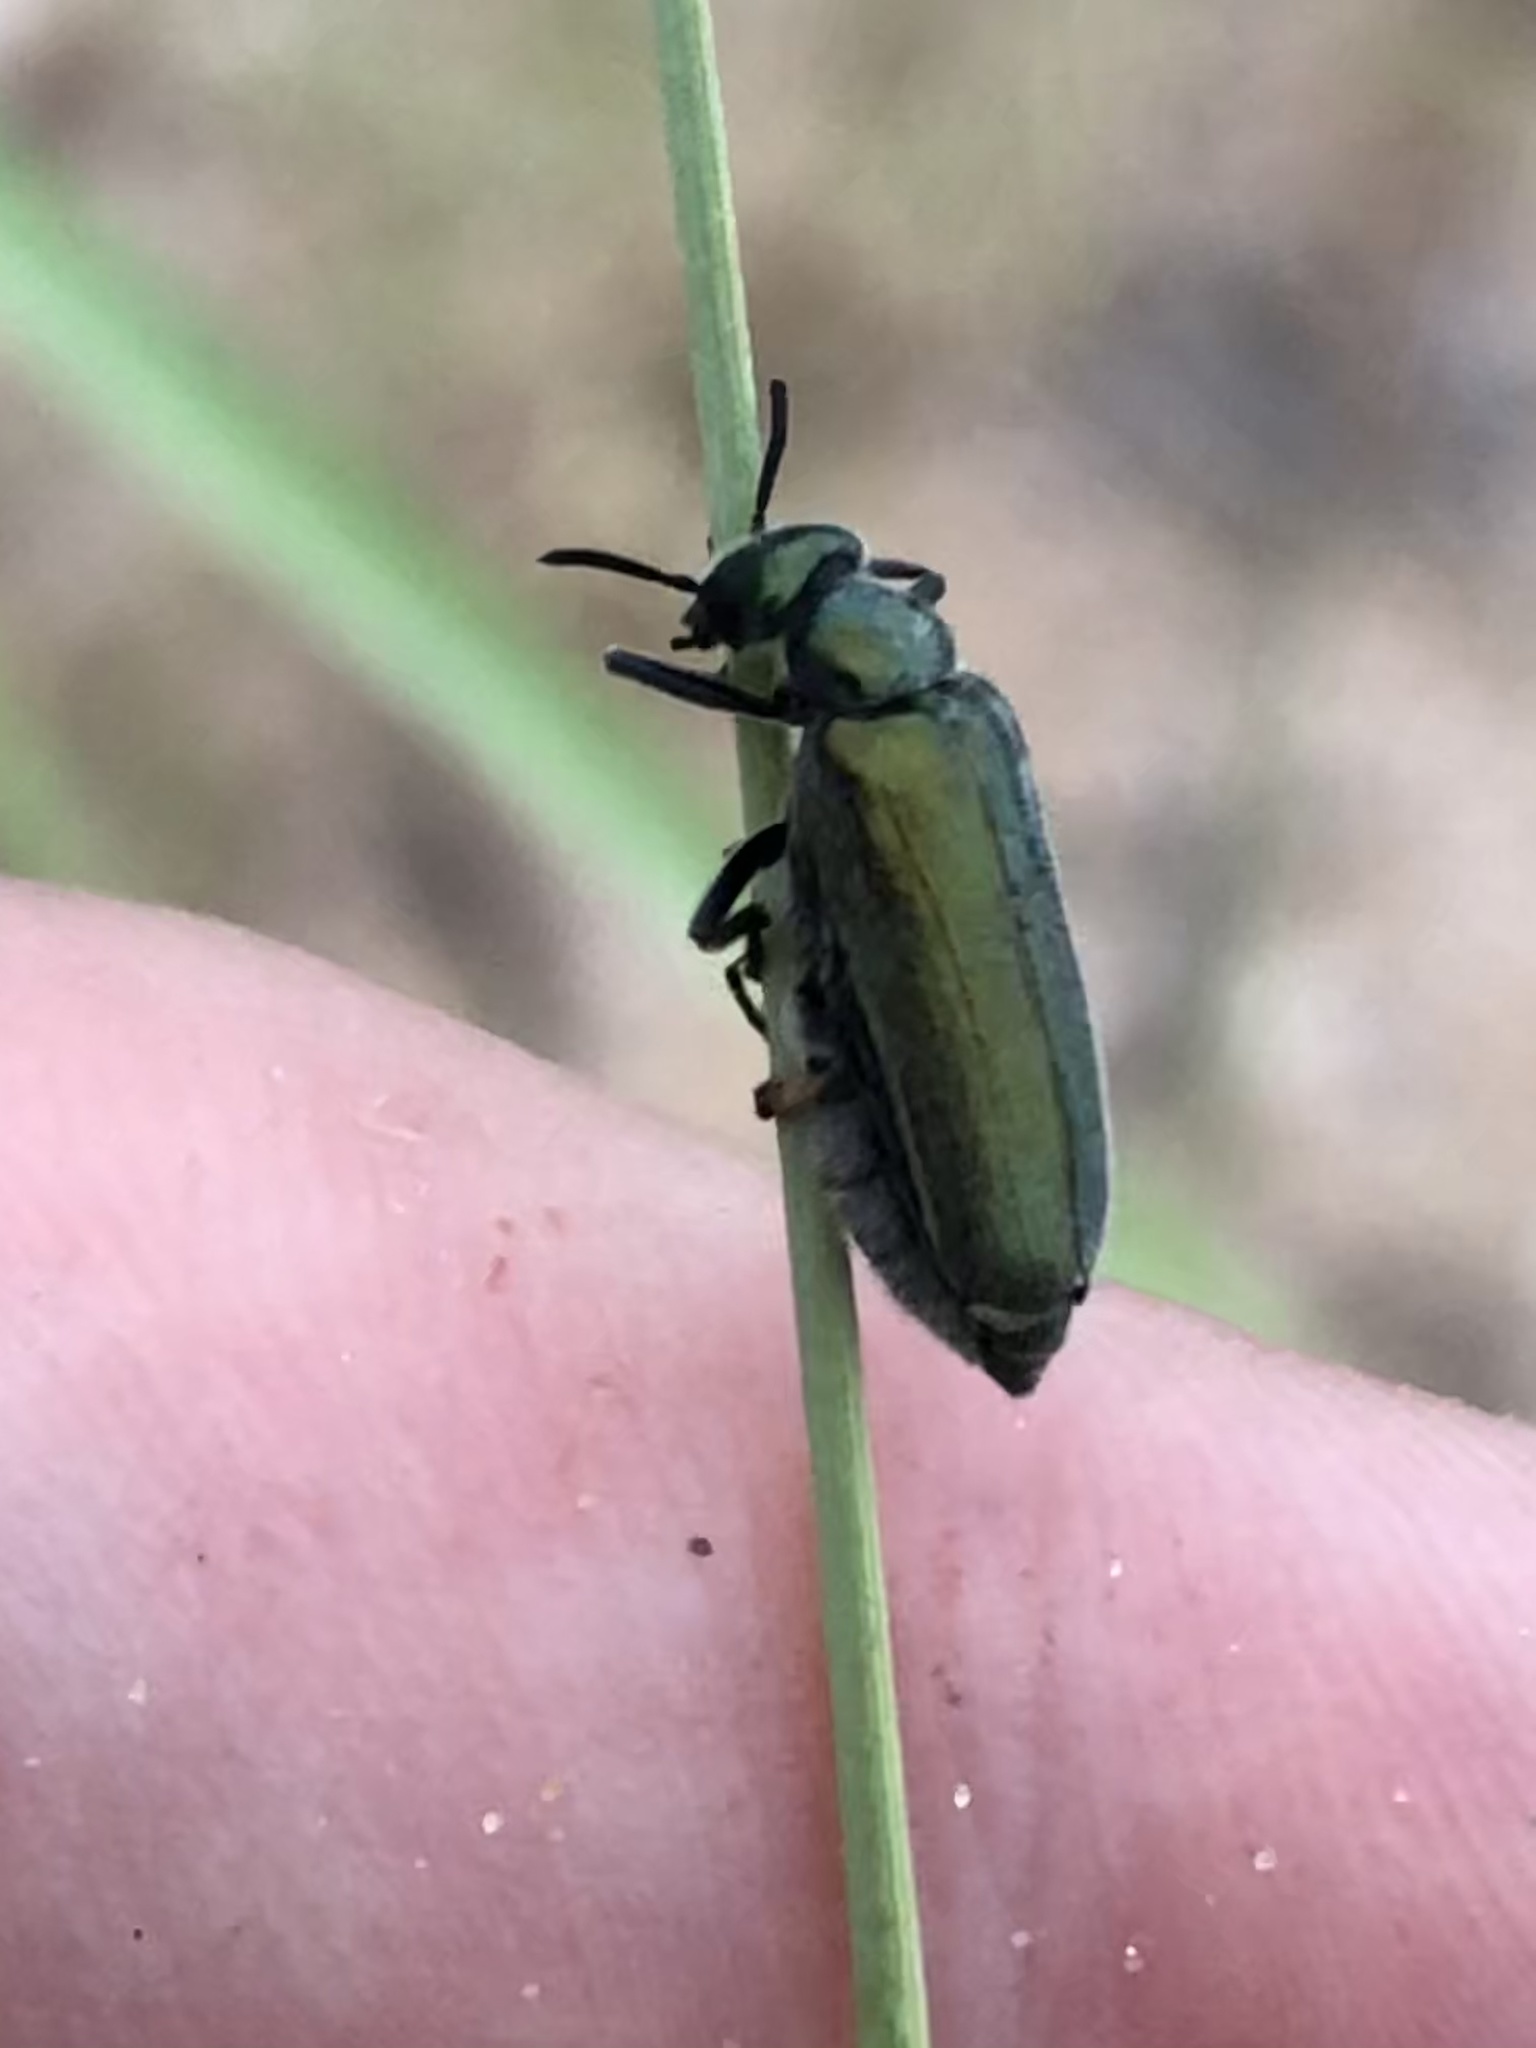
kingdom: Animalia
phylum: Arthropoda
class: Insecta
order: Coleoptera
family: Meloidae
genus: Eupompha
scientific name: Eupompha viridis
